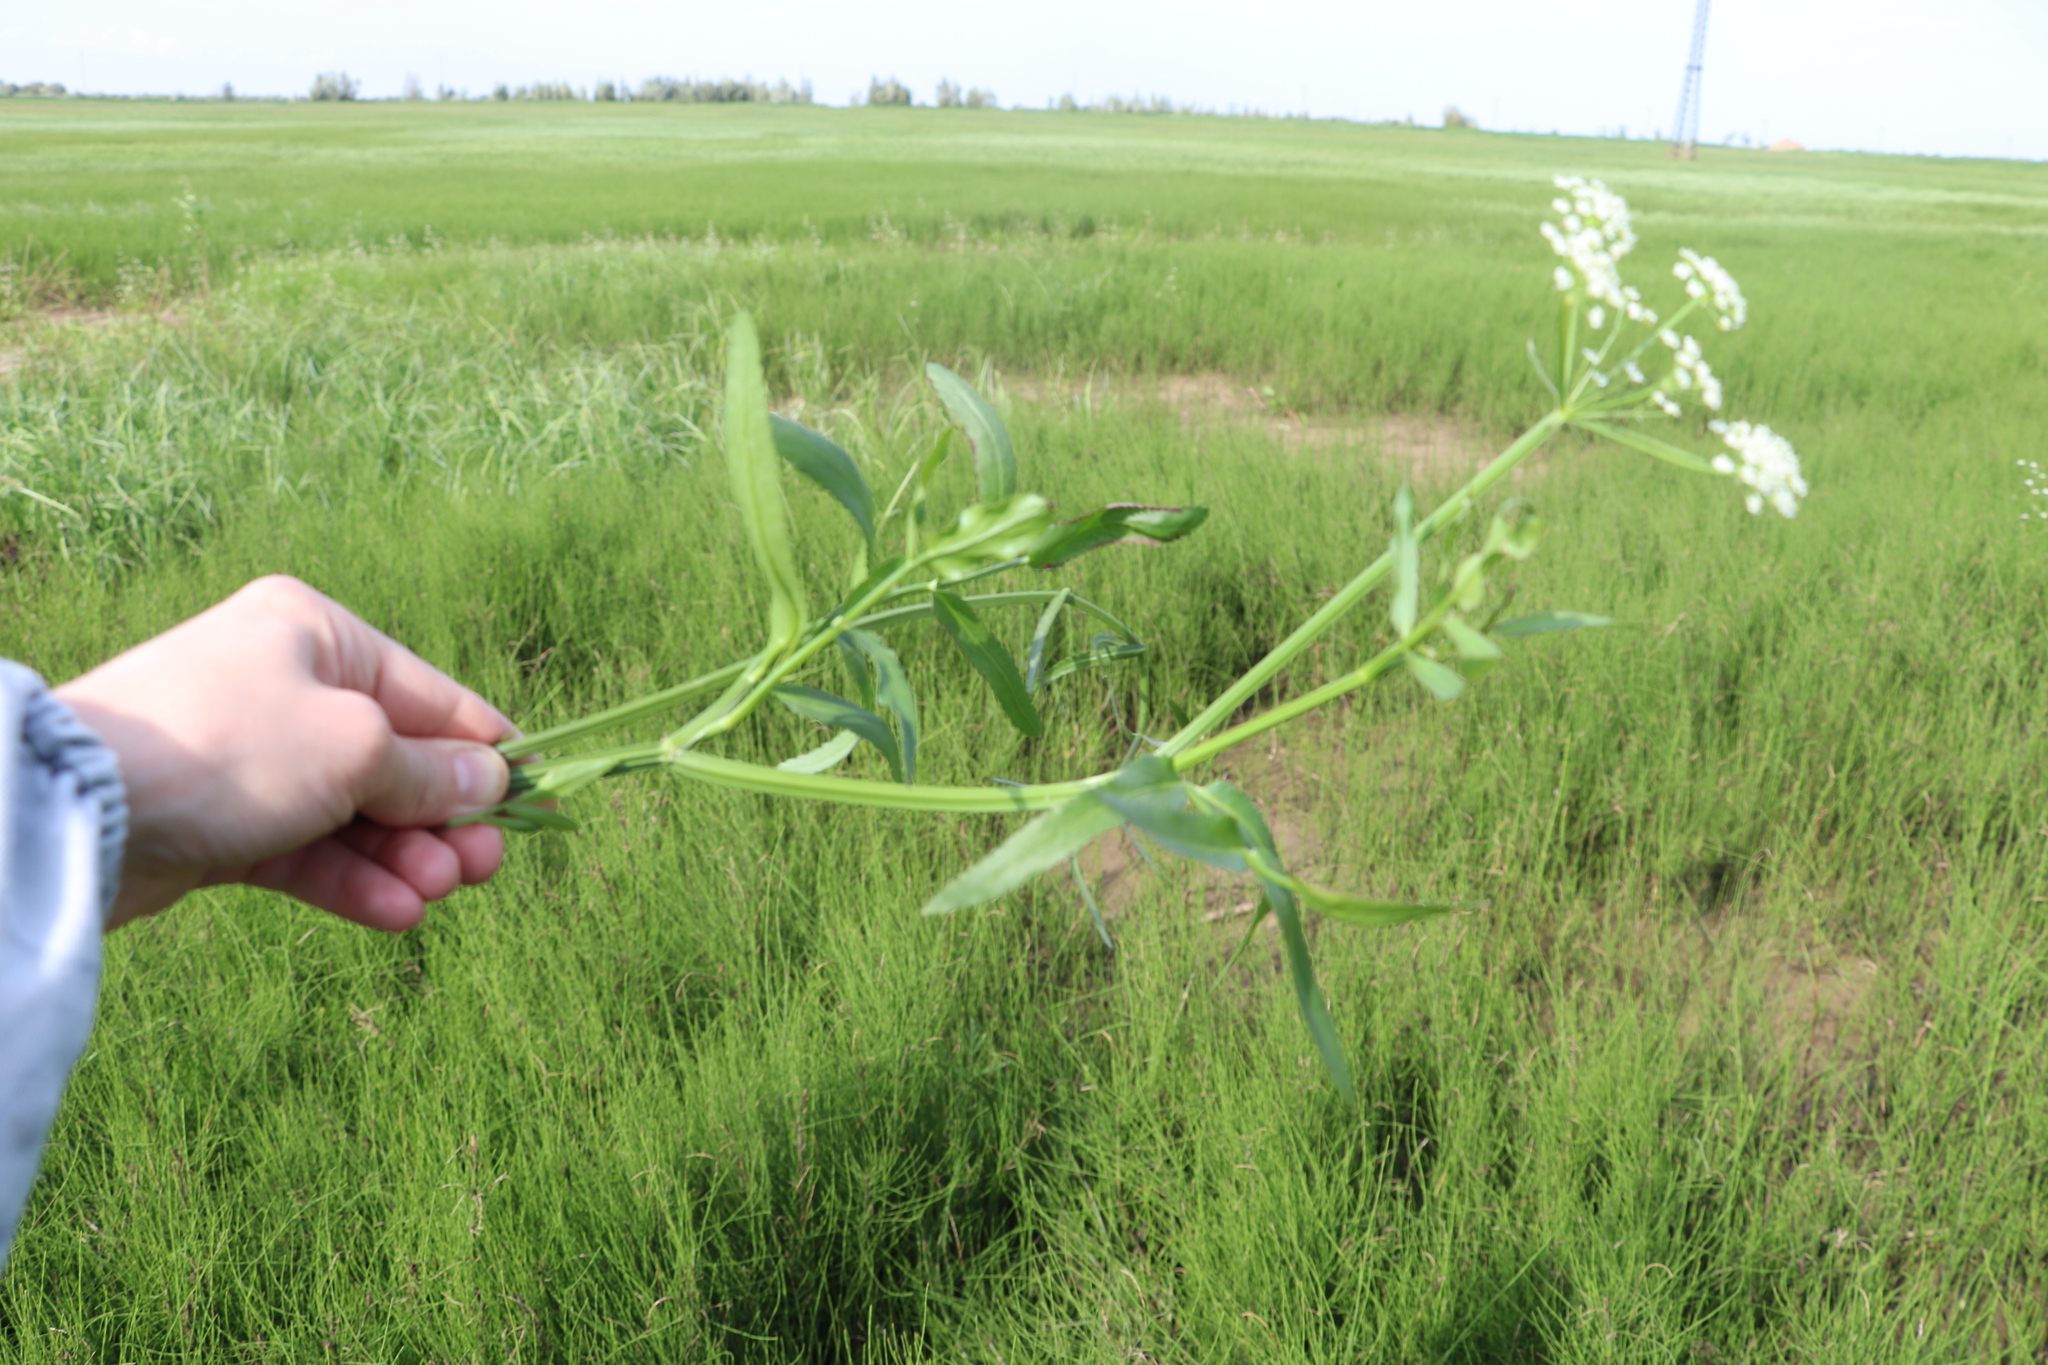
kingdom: Plantae
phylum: Tracheophyta
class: Magnoliopsida
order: Apiales
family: Apiaceae
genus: Sium
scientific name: Sium latifolium
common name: Greater water-parsnip
